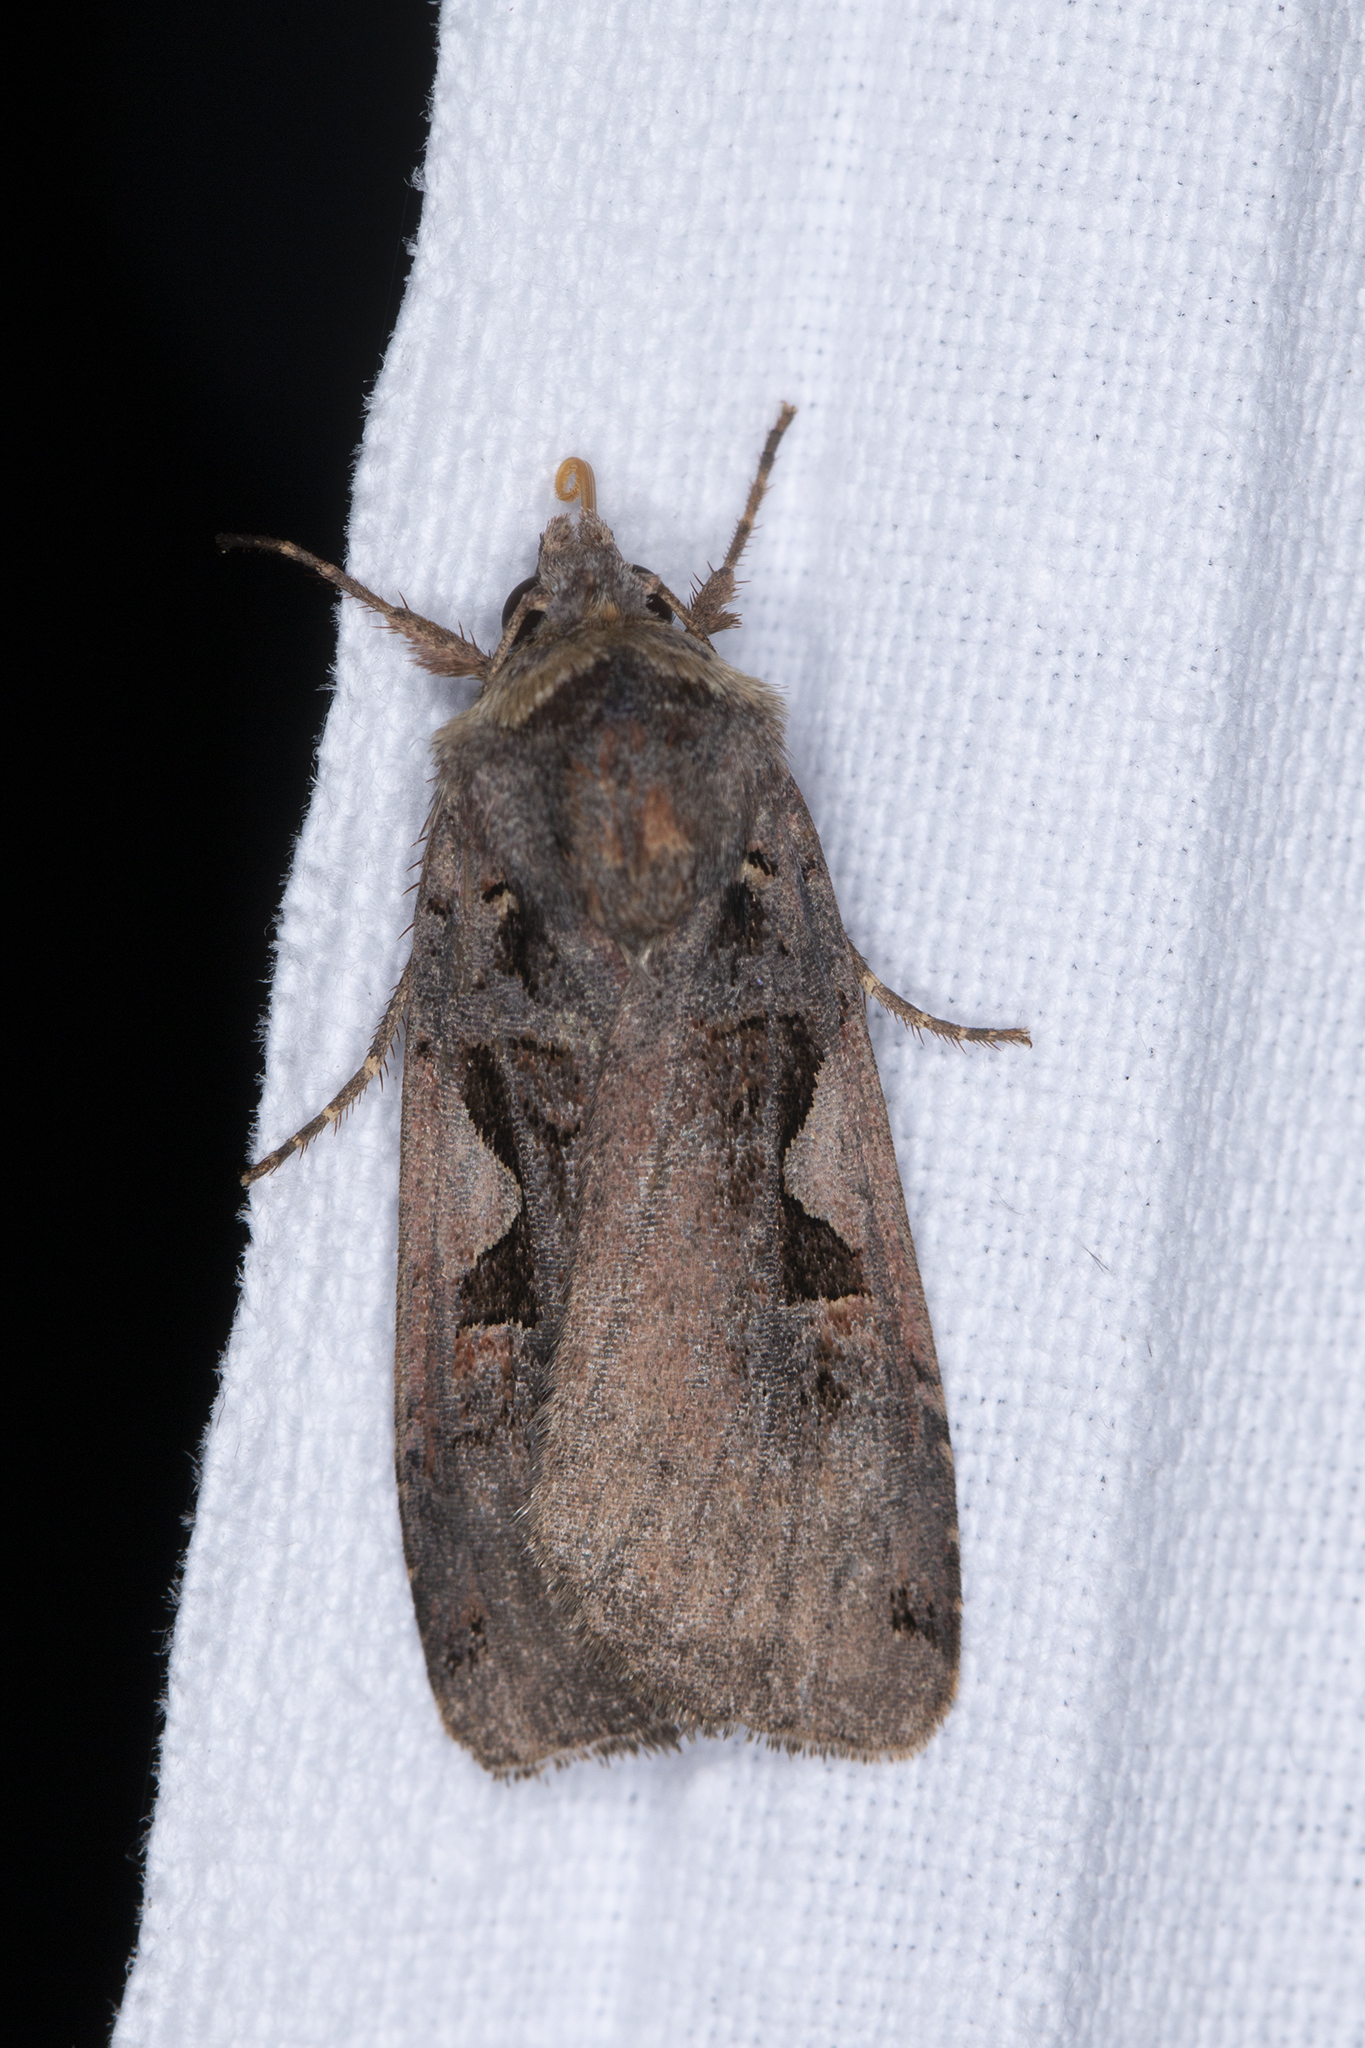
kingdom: Animalia
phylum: Arthropoda
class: Insecta
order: Lepidoptera
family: Noctuidae
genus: Xestia
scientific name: Xestia c-nigrum
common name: Setaceous hebrew character
